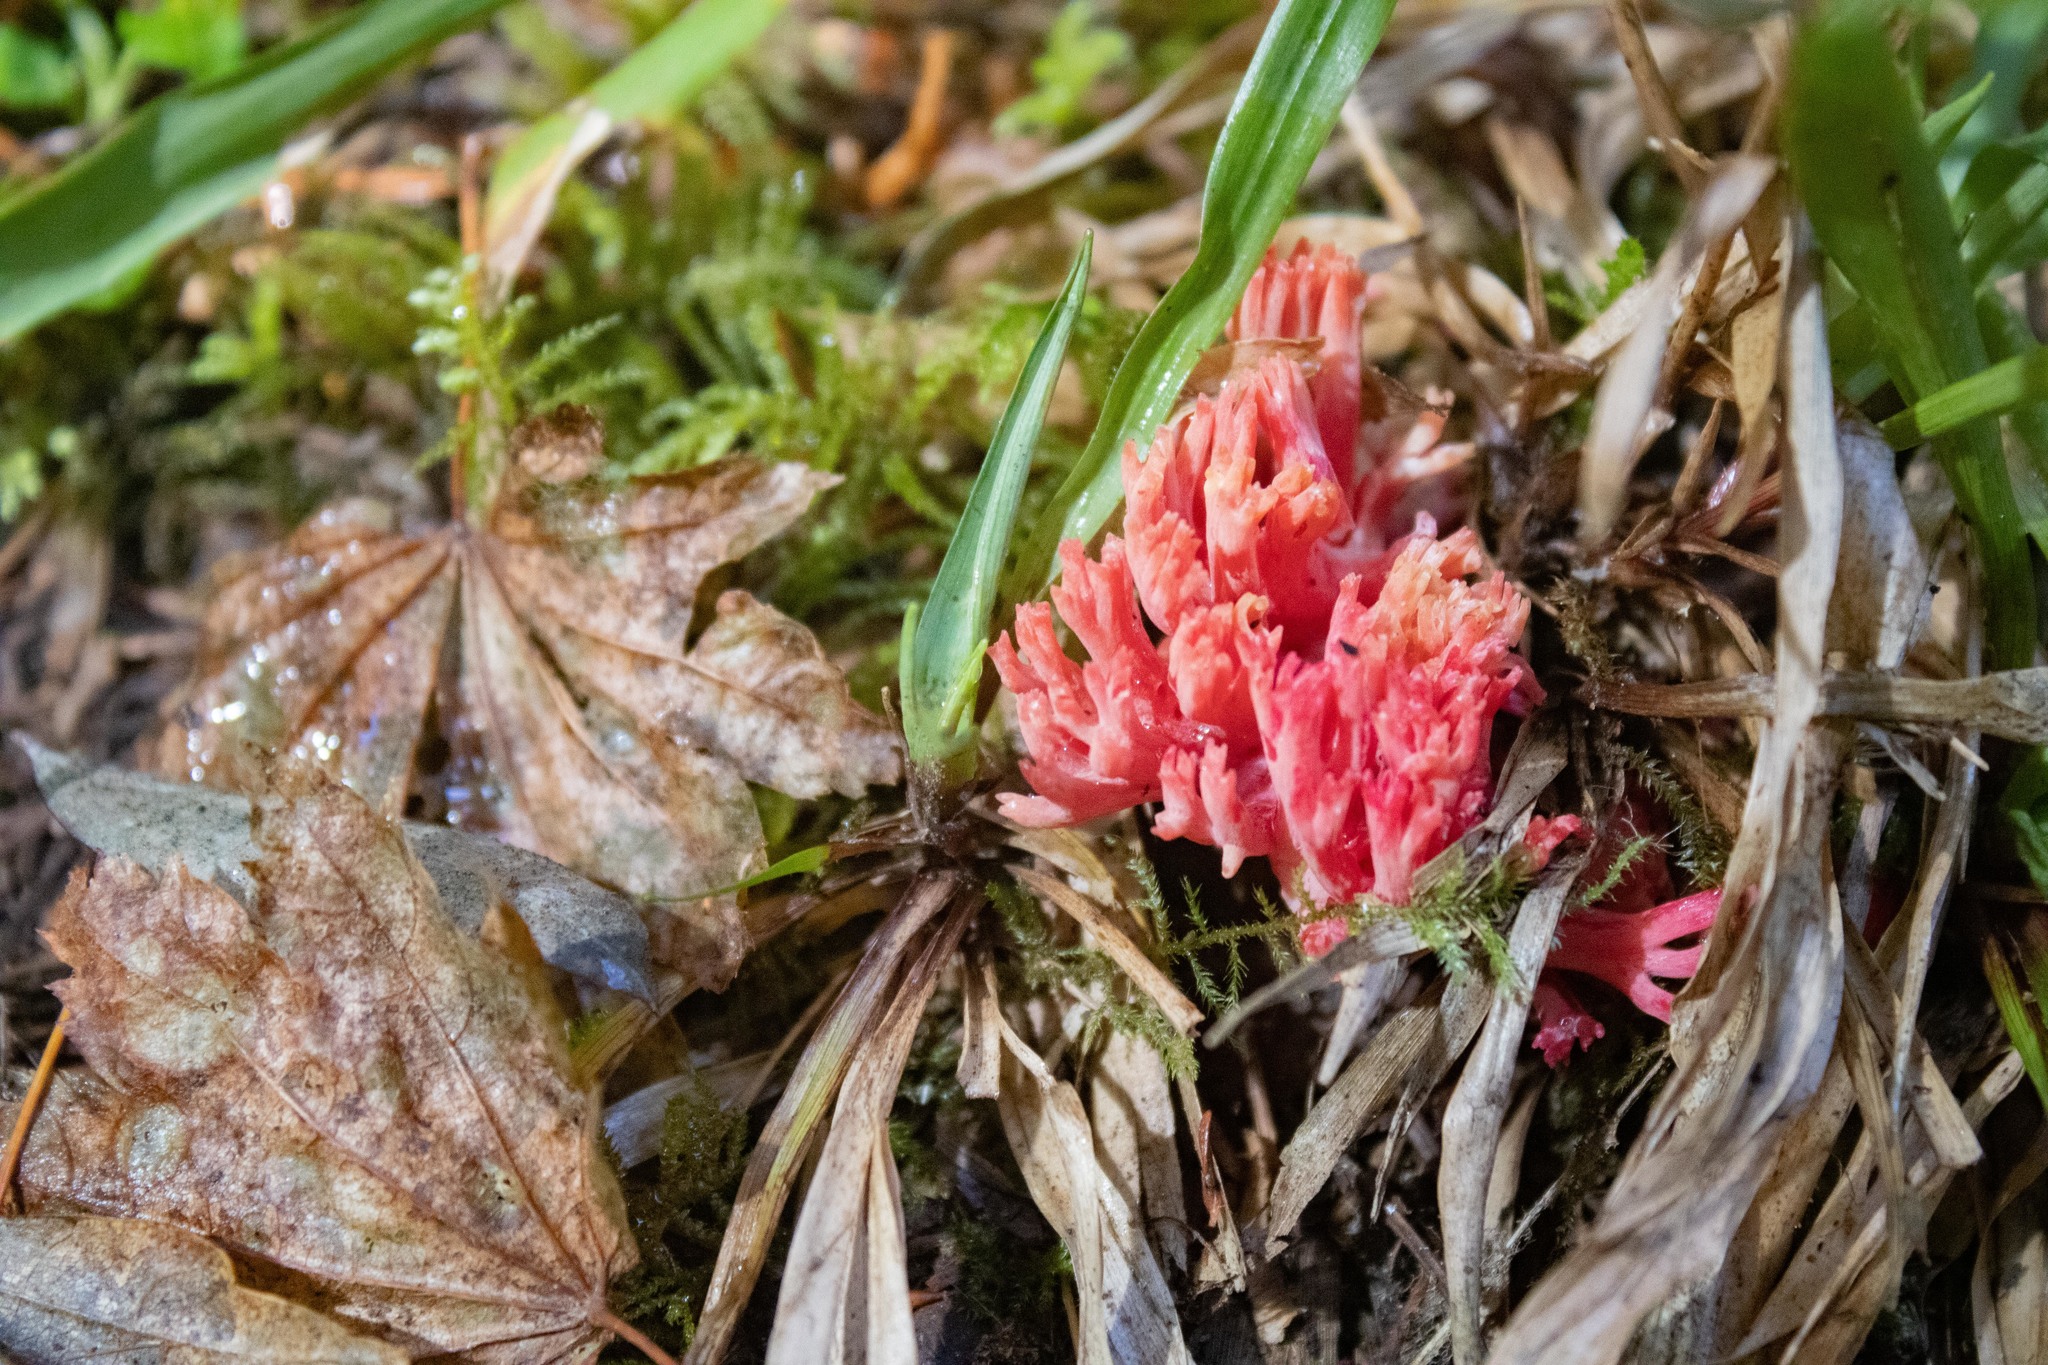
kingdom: Fungi
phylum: Basidiomycota
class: Agaricomycetes
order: Gomphales
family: Gomphaceae
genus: Ramaria
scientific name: Ramaria araiospora
